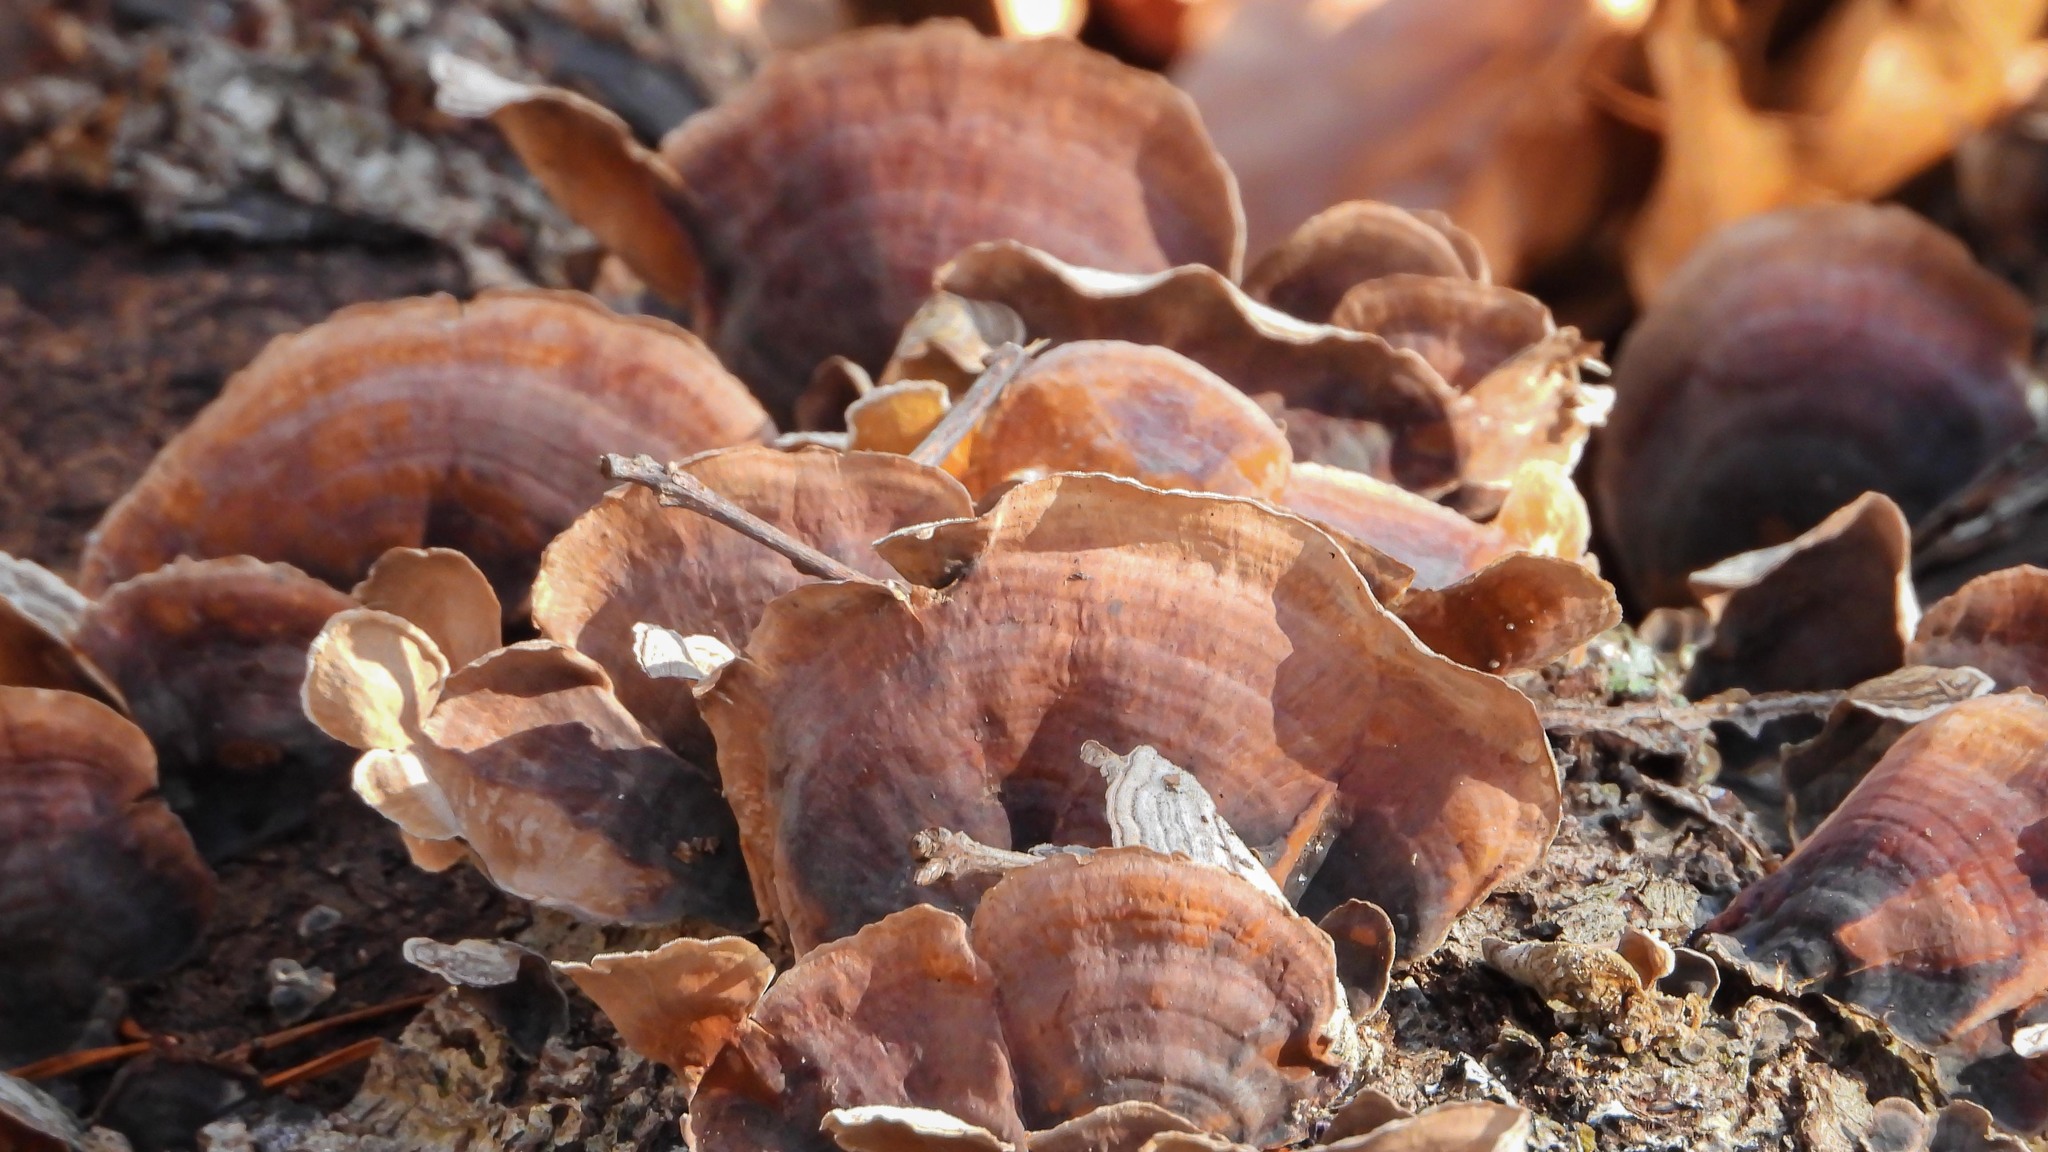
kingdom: Fungi
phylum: Basidiomycota
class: Agaricomycetes
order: Russulales
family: Stereaceae
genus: Stereum
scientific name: Stereum ostrea
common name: False turkeytail
